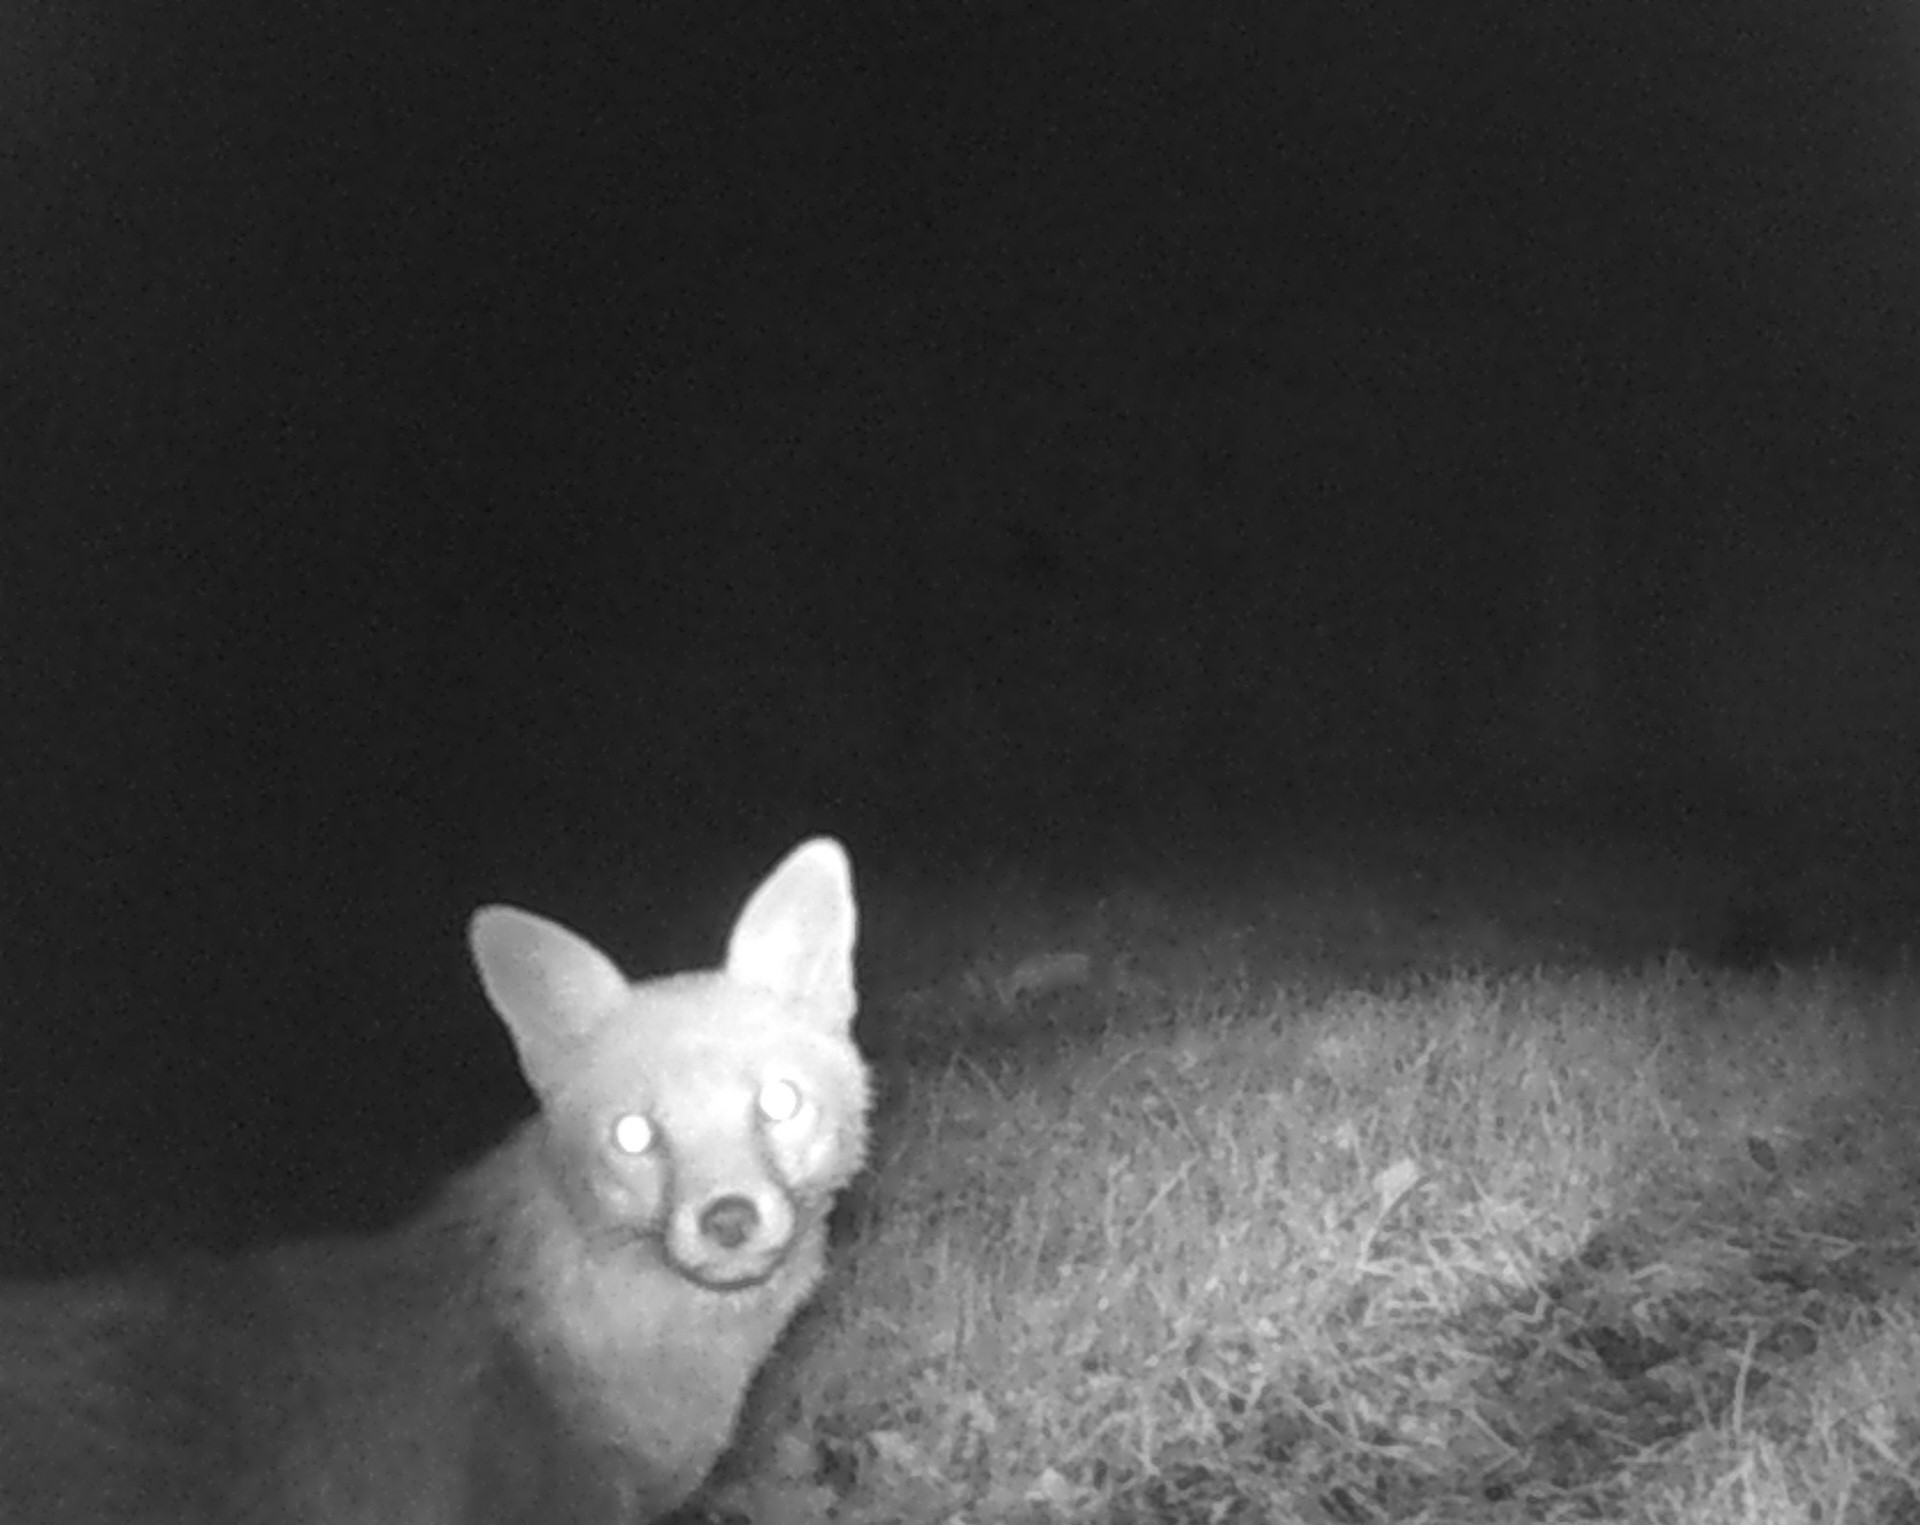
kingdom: Animalia
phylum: Chordata
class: Mammalia
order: Carnivora
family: Canidae
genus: Vulpes
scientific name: Vulpes vulpes
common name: Red fox
